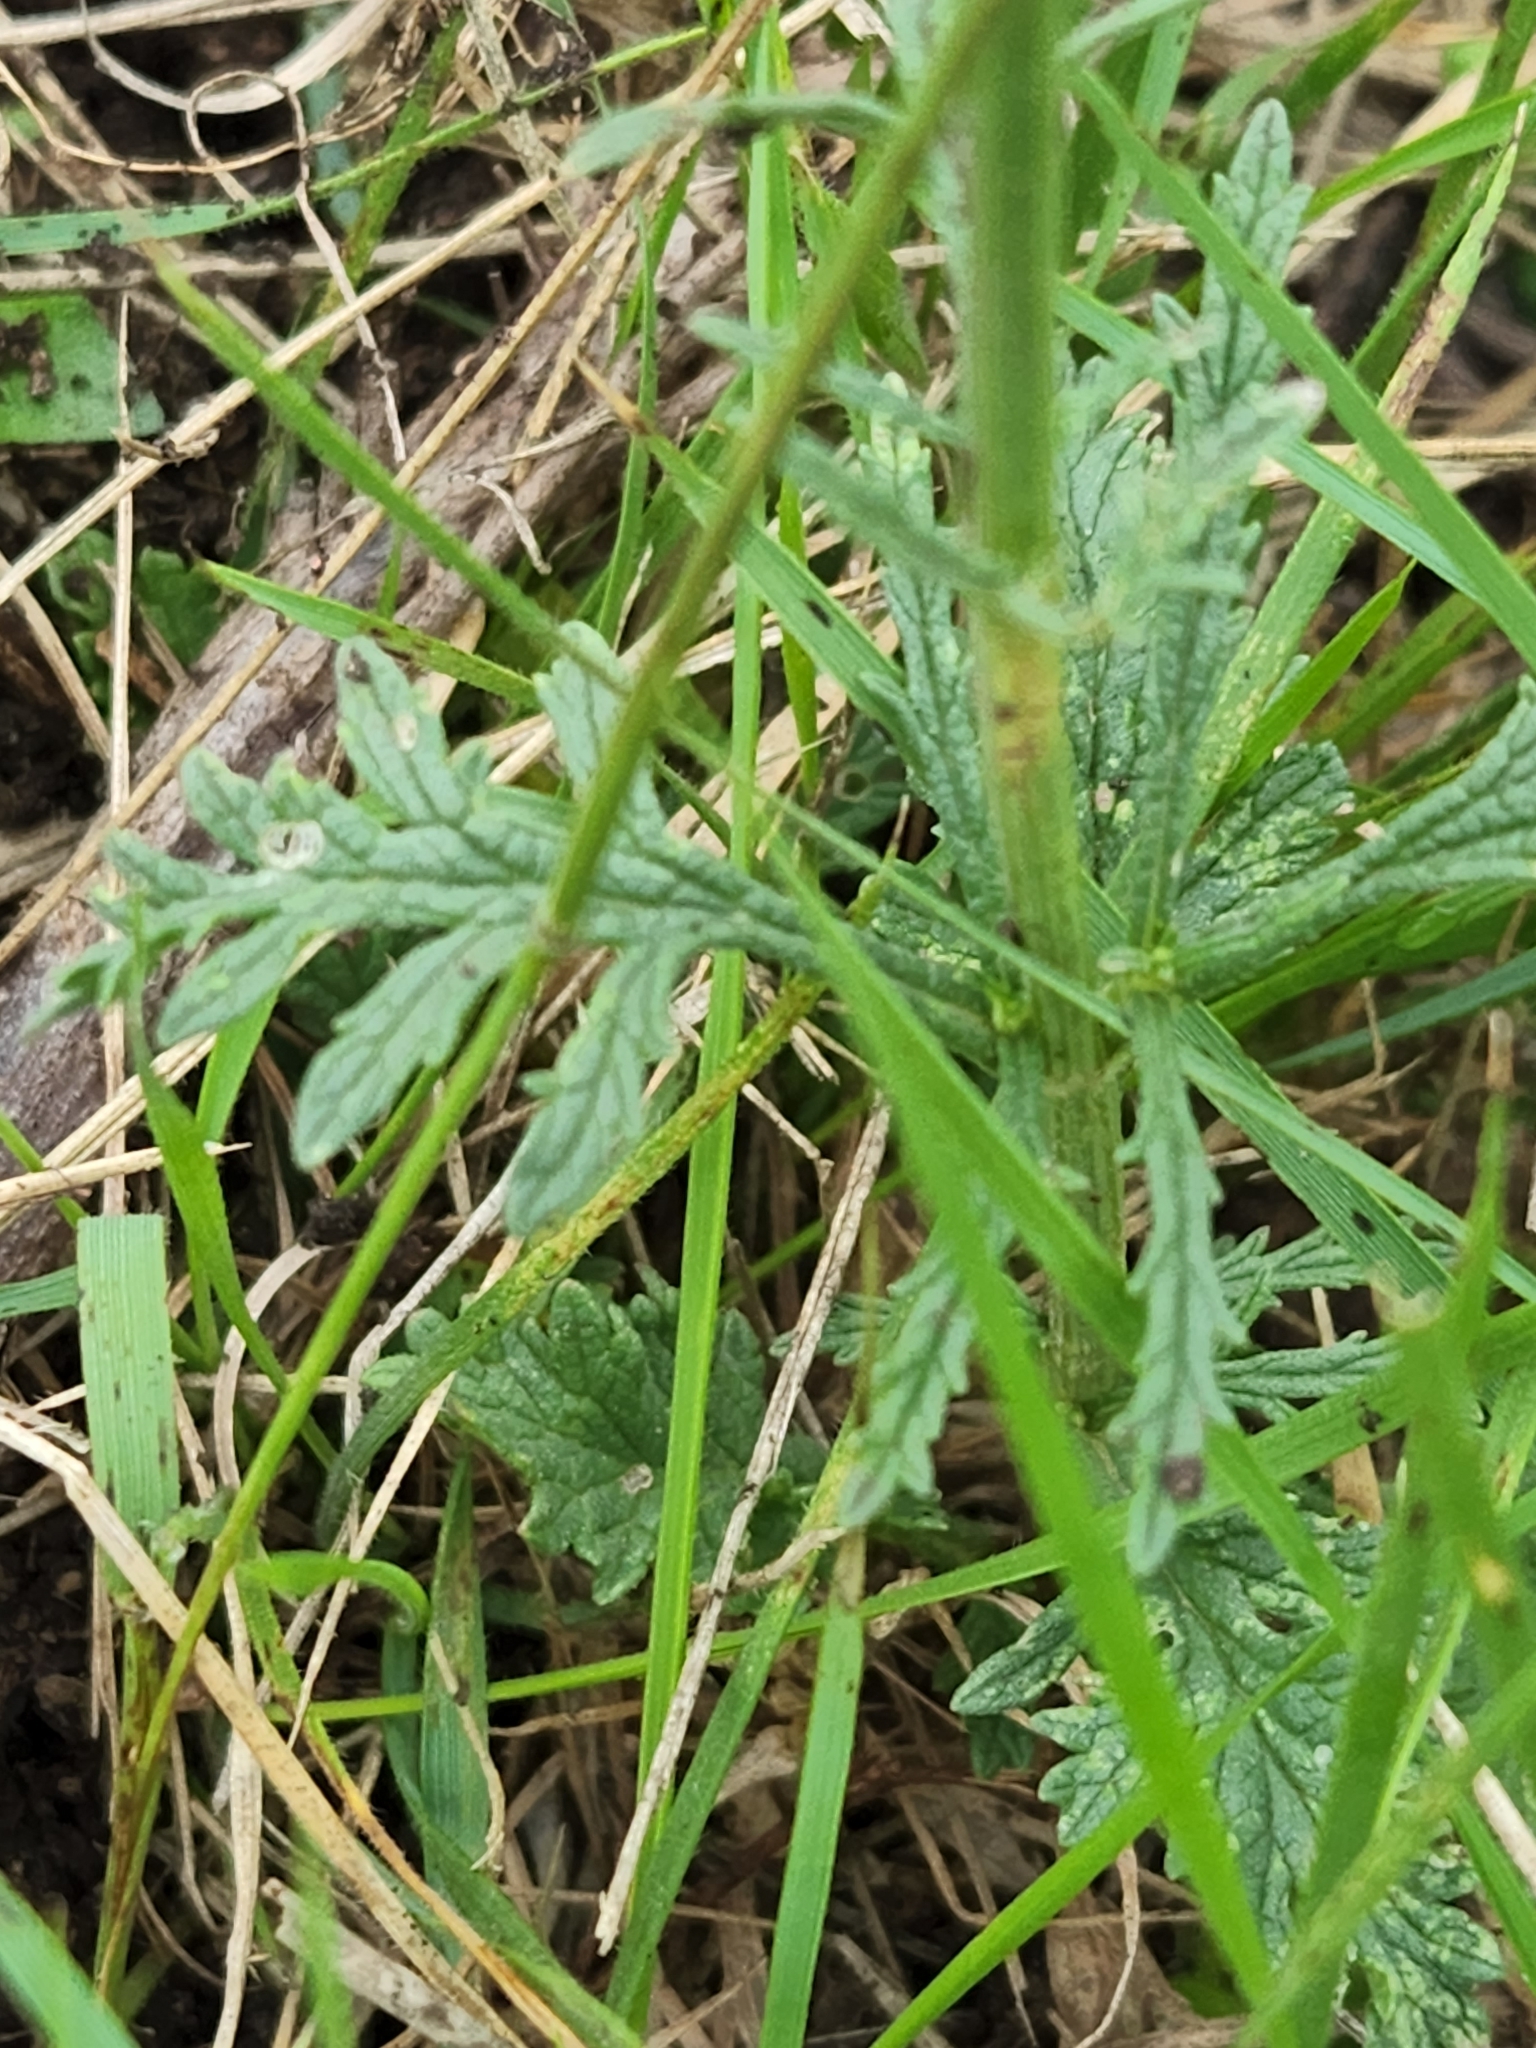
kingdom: Plantae
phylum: Tracheophyta
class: Magnoliopsida
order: Lamiales
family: Verbenaceae
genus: Verbena
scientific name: Verbena halei
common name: Texas vervain
